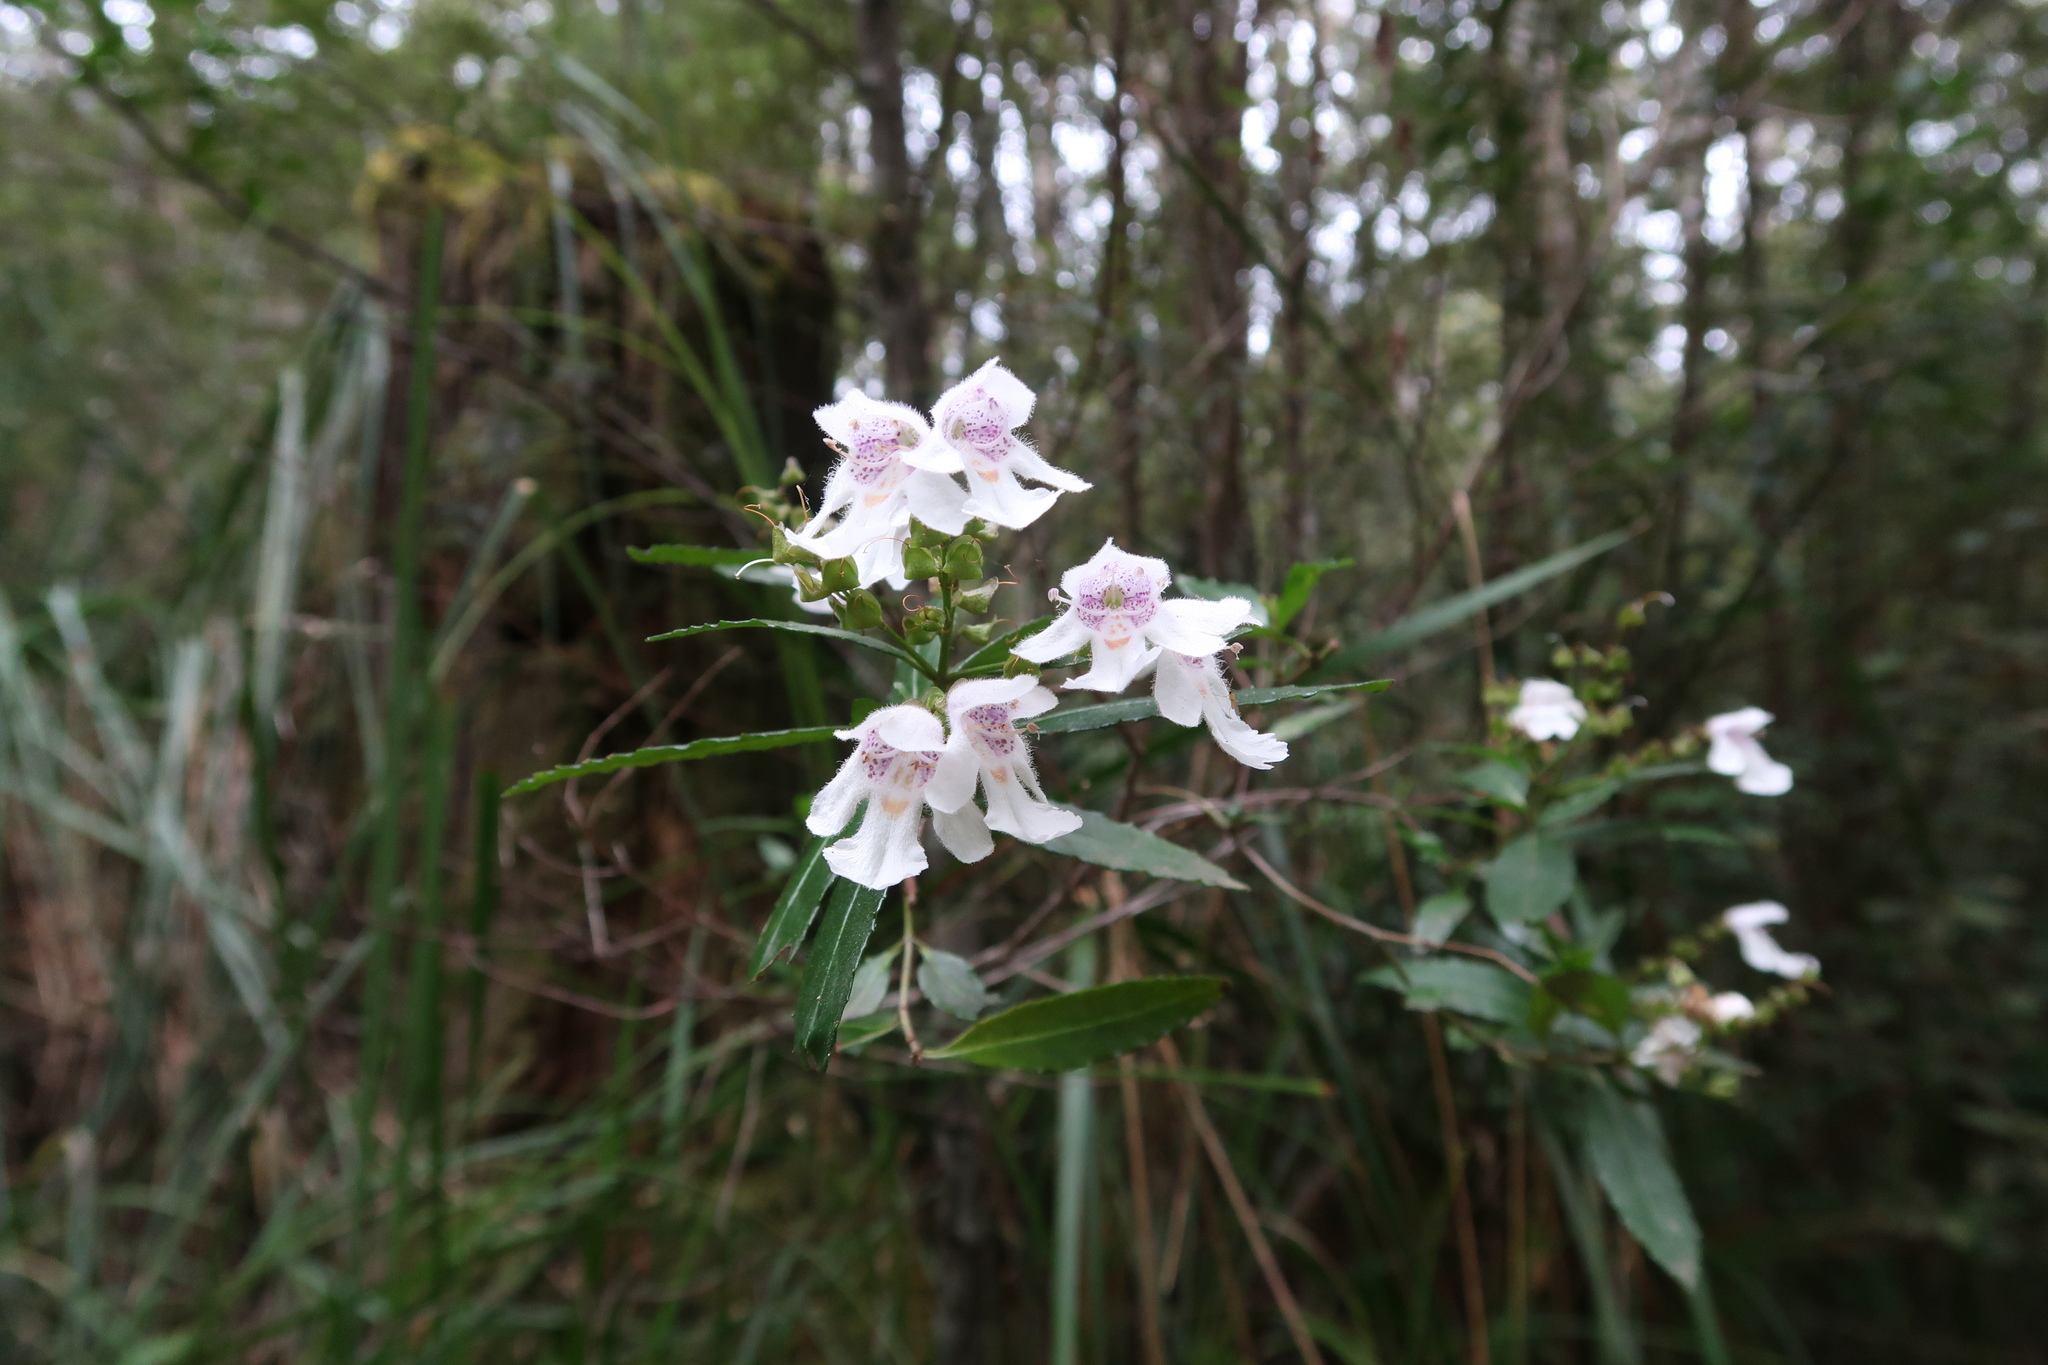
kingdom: Plantae
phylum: Tracheophyta
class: Magnoliopsida
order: Lamiales
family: Lamiaceae
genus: Prostanthera
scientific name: Prostanthera lasianthos
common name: Mountain-lilac
